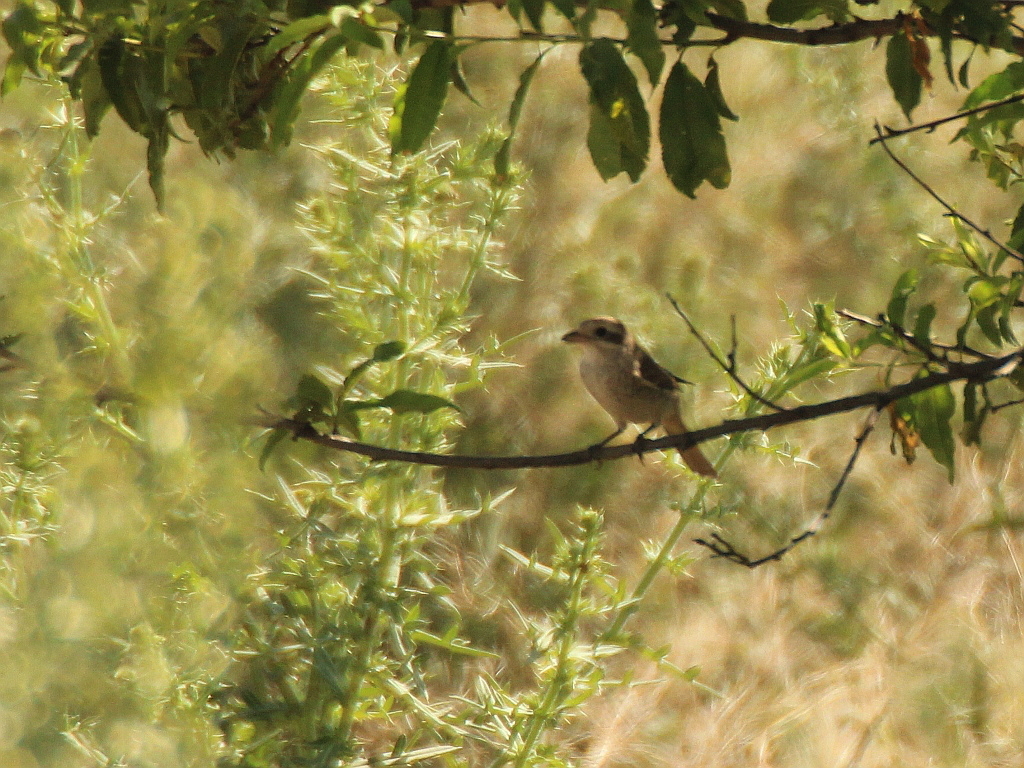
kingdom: Animalia
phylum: Chordata
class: Aves
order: Passeriformes
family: Laniidae
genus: Lanius
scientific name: Lanius collurio
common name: Red-backed shrike
